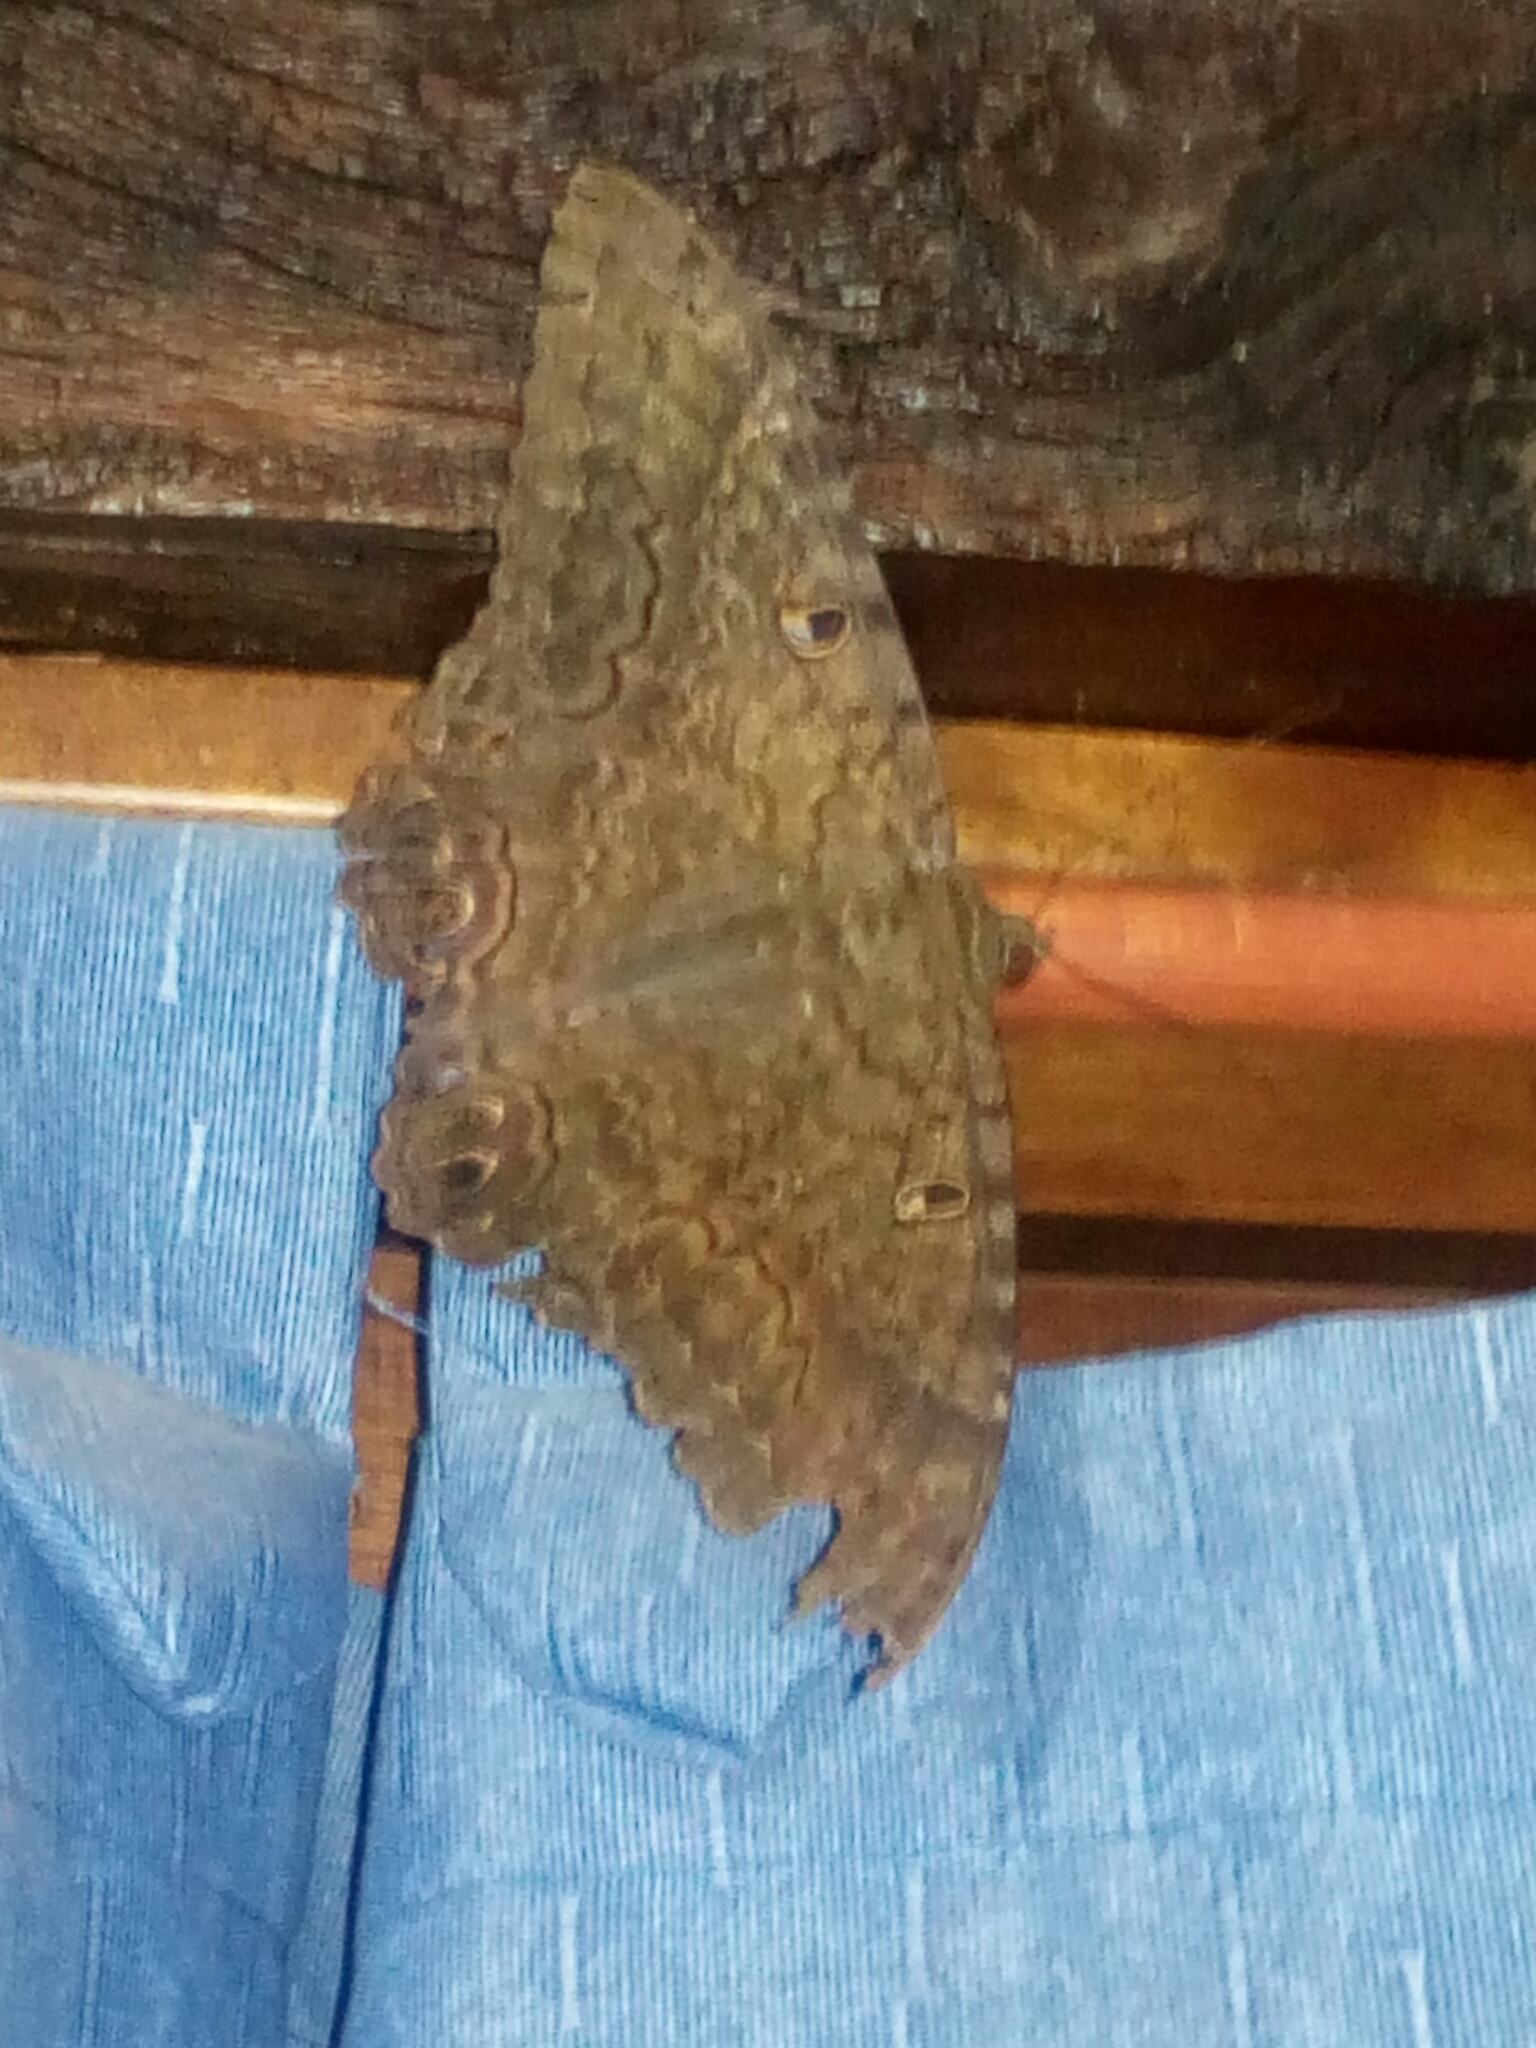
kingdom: Animalia
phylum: Arthropoda
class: Insecta
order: Lepidoptera
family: Erebidae
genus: Ascalapha
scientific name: Ascalapha odorata
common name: Black witch
